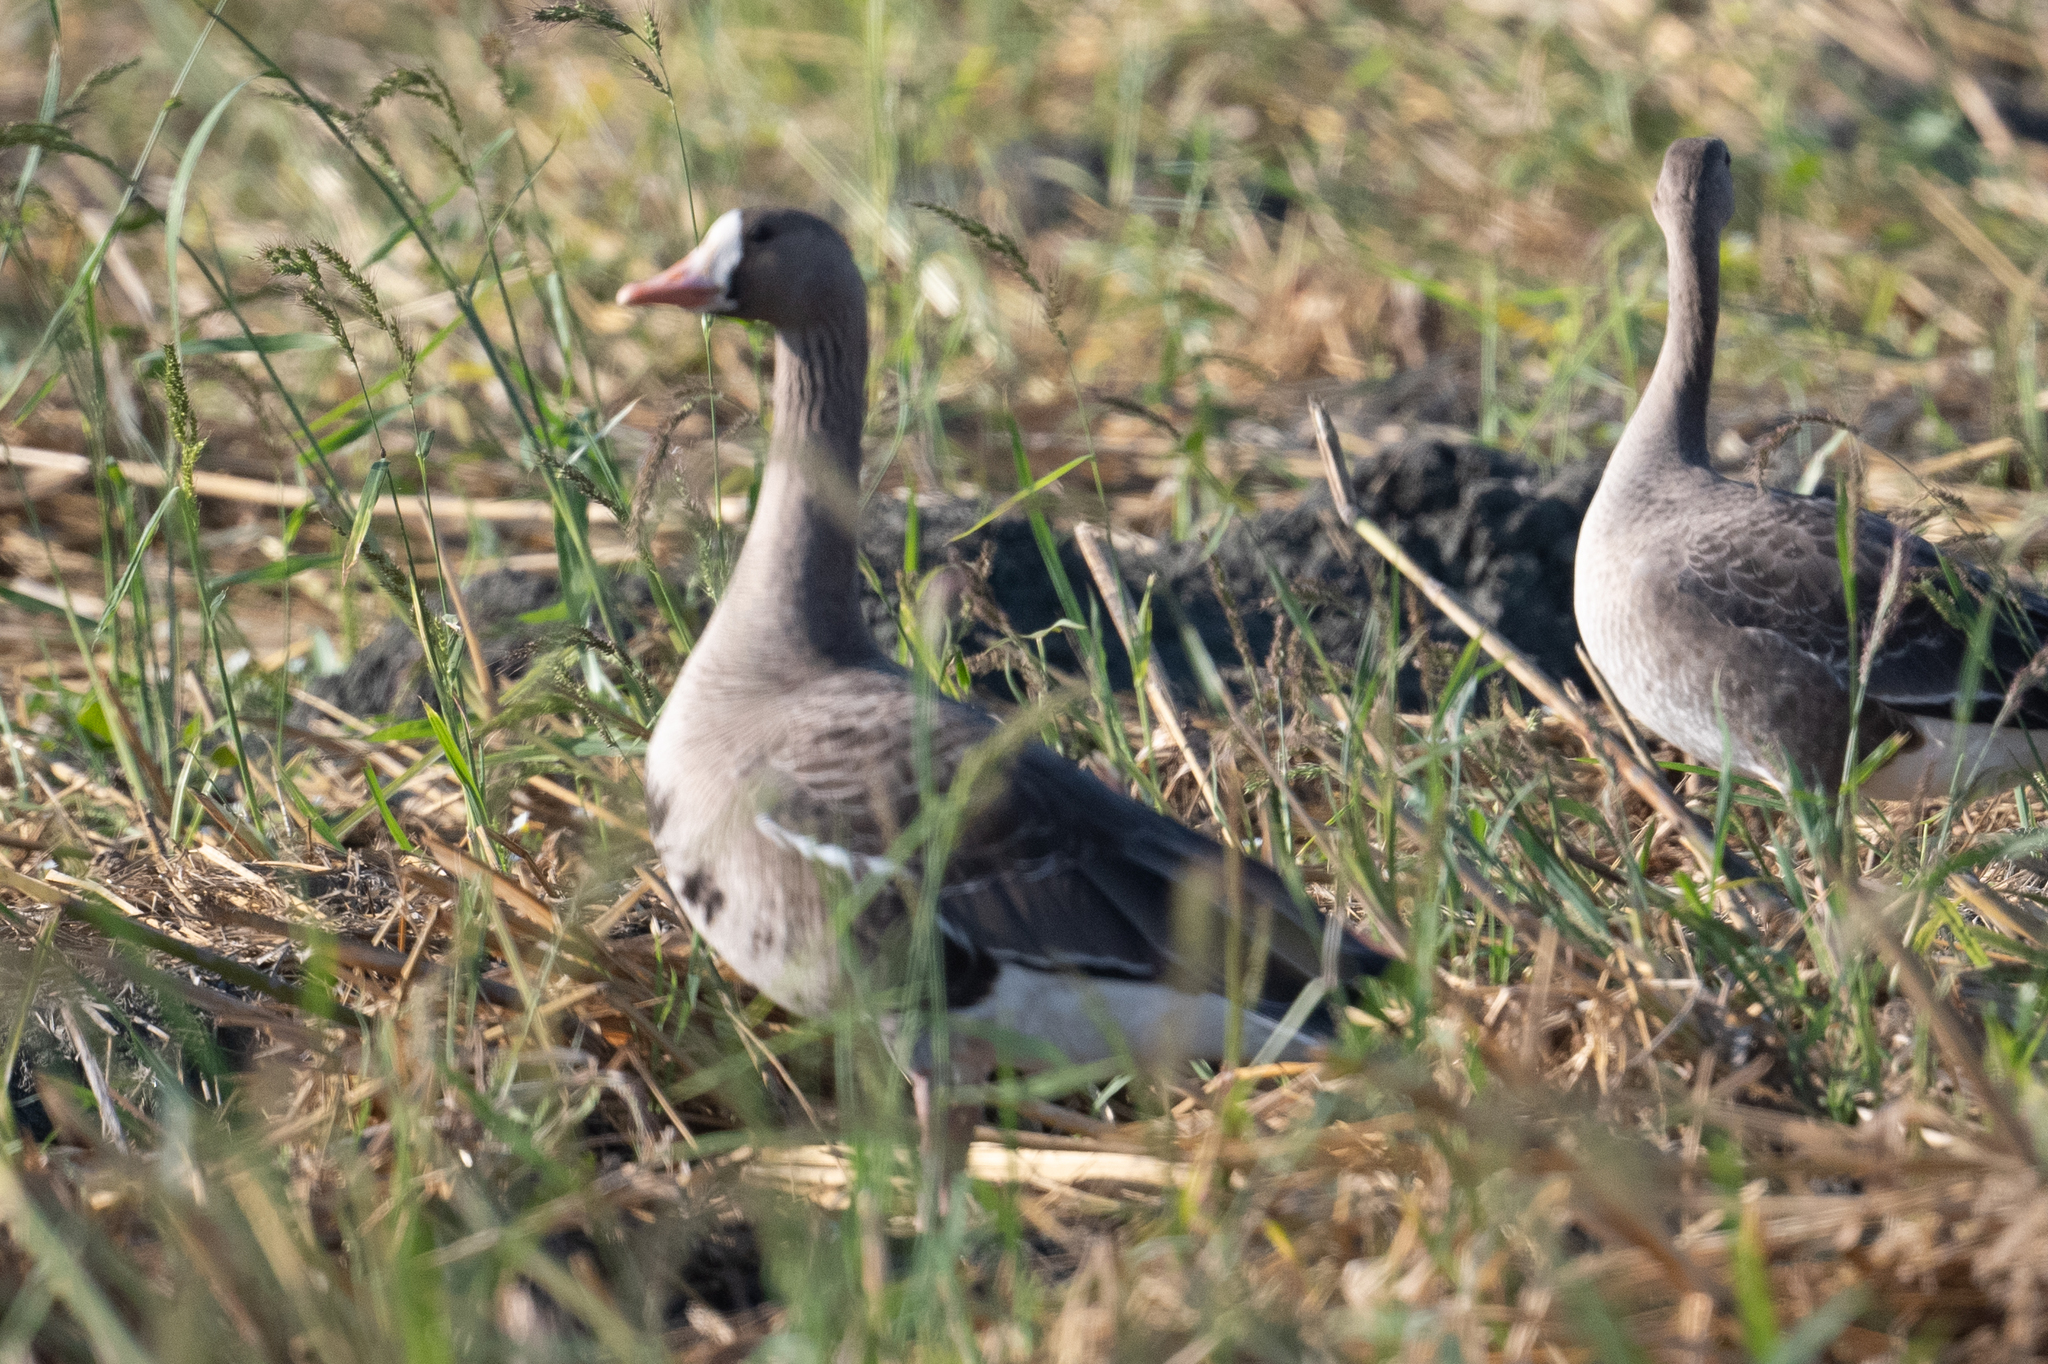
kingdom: Animalia
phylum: Chordata
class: Aves
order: Anseriformes
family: Anatidae
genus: Anser
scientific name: Anser albifrons
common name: Greater white-fronted goose
